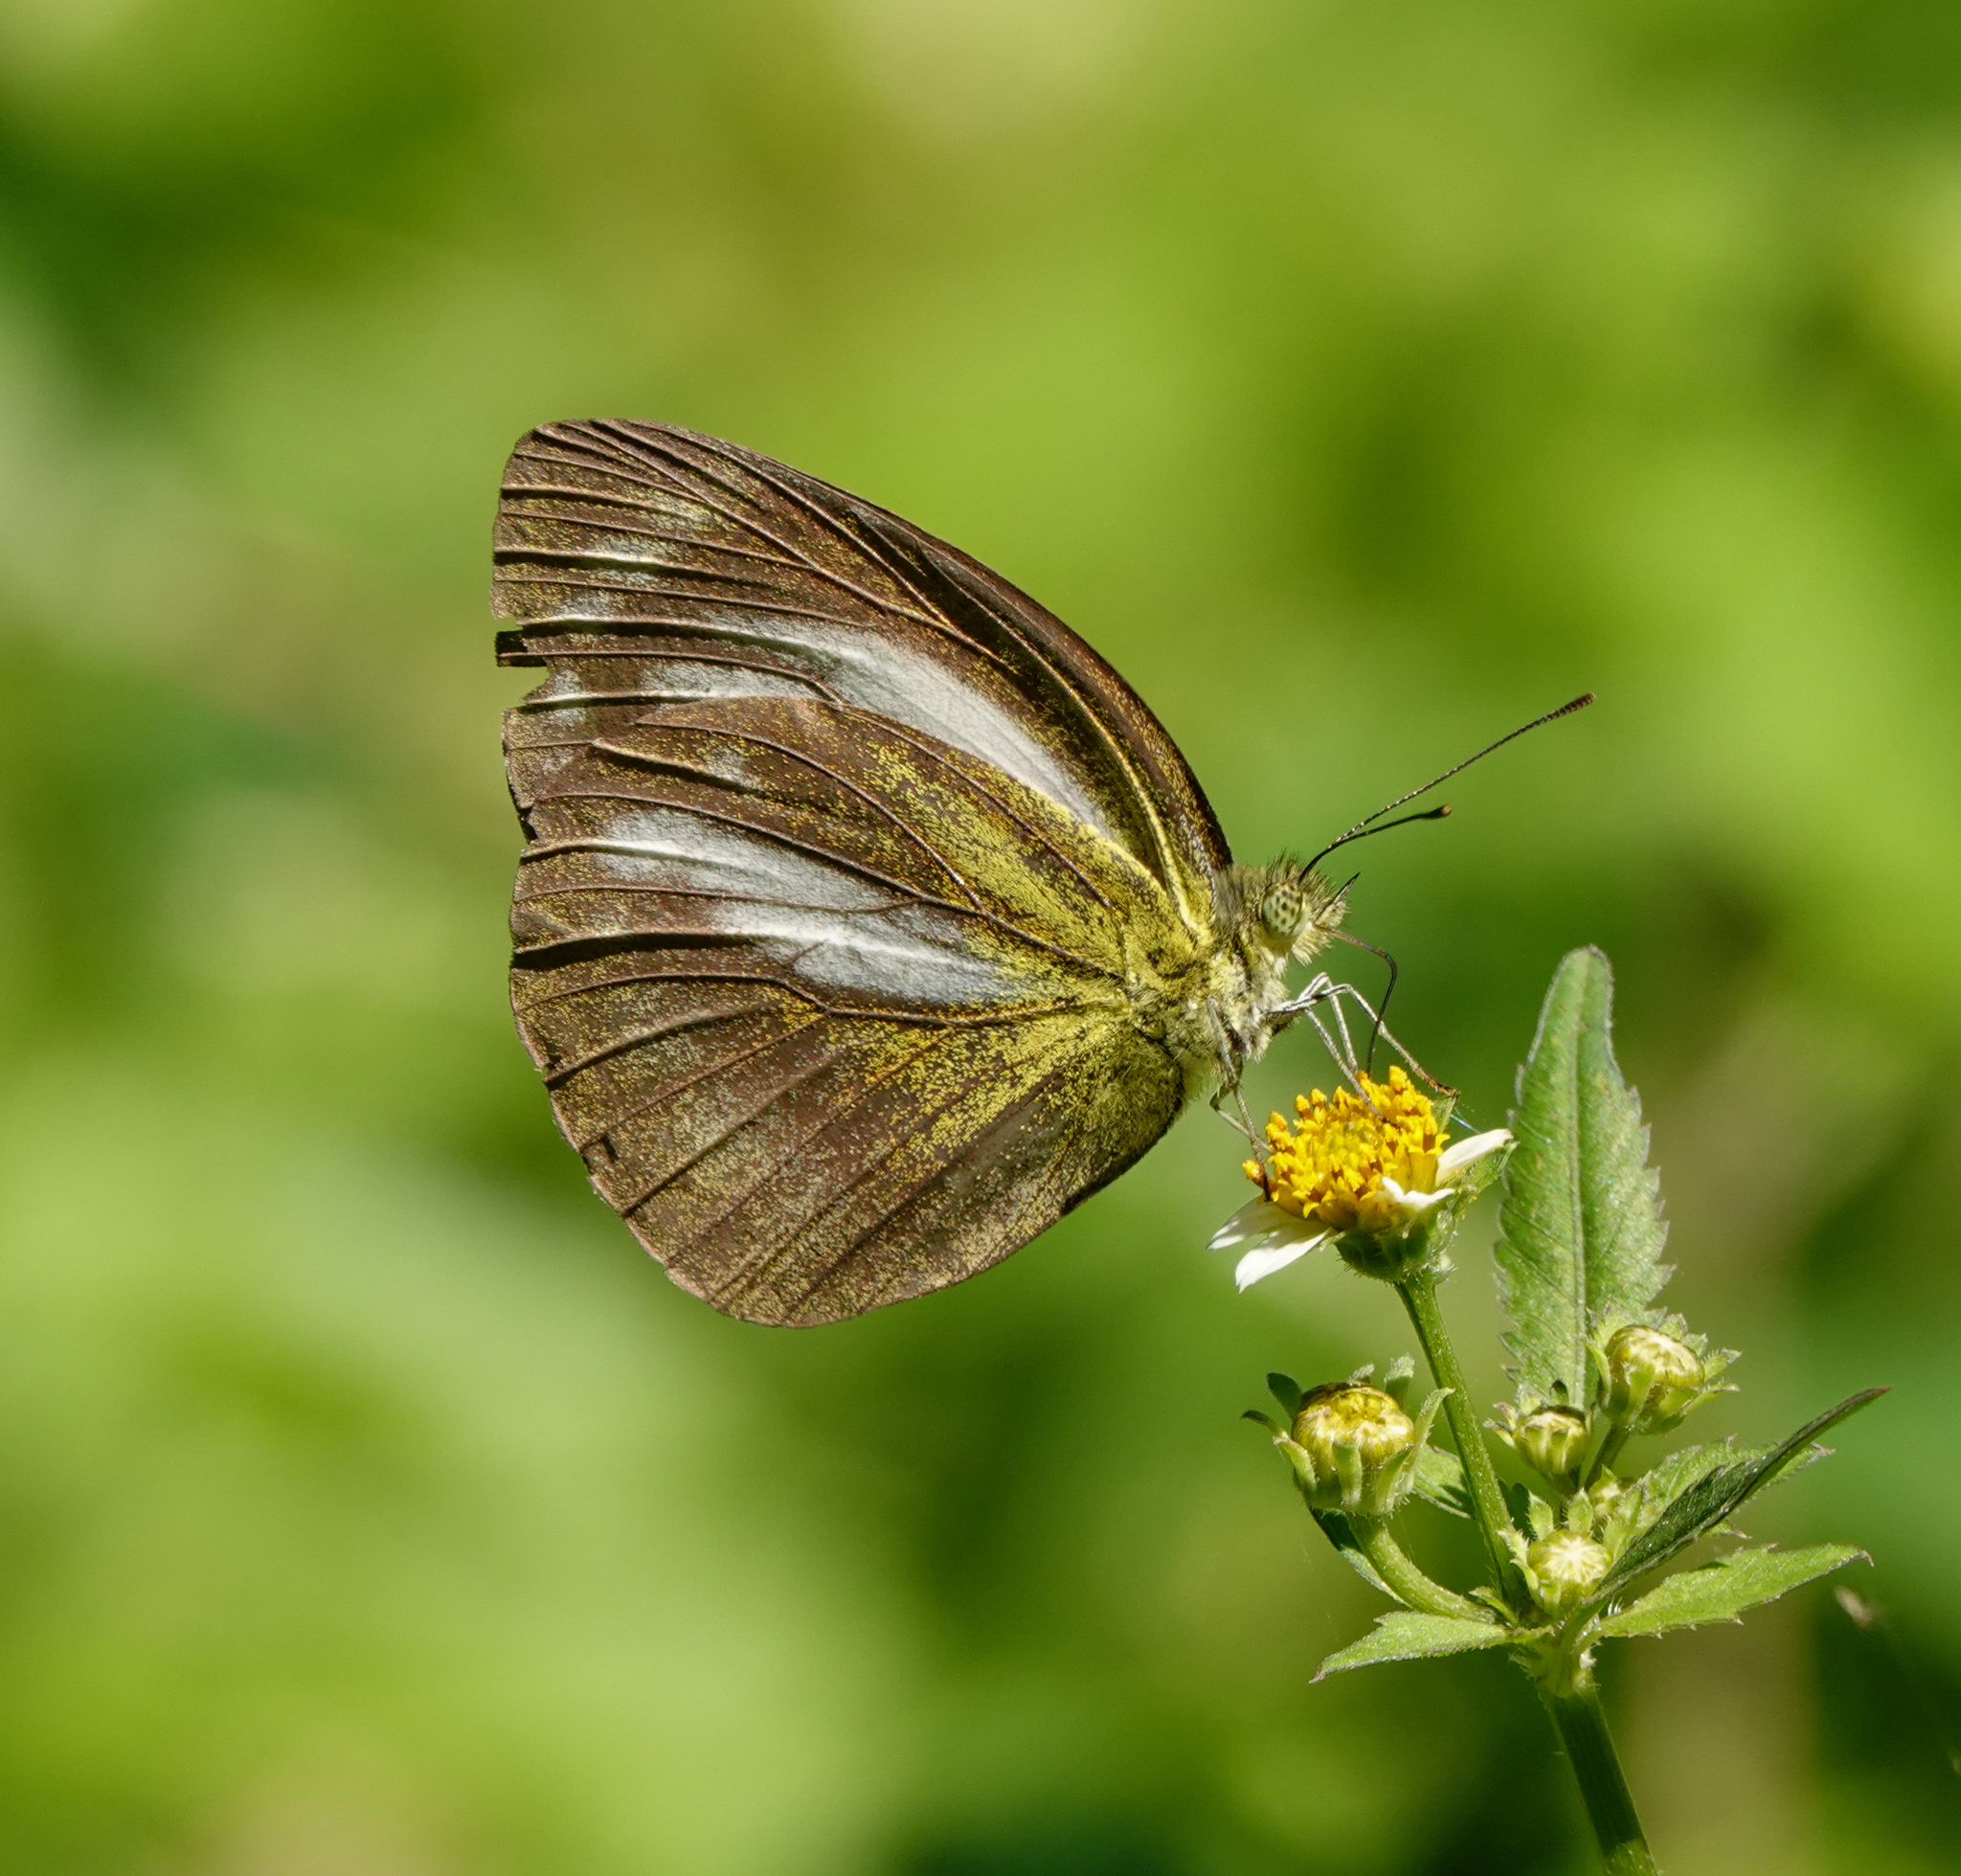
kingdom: Animalia
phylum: Arthropoda
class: Insecta
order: Lepidoptera
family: Pieridae
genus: Cepora
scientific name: Cepora nadina
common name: Lesser gull
